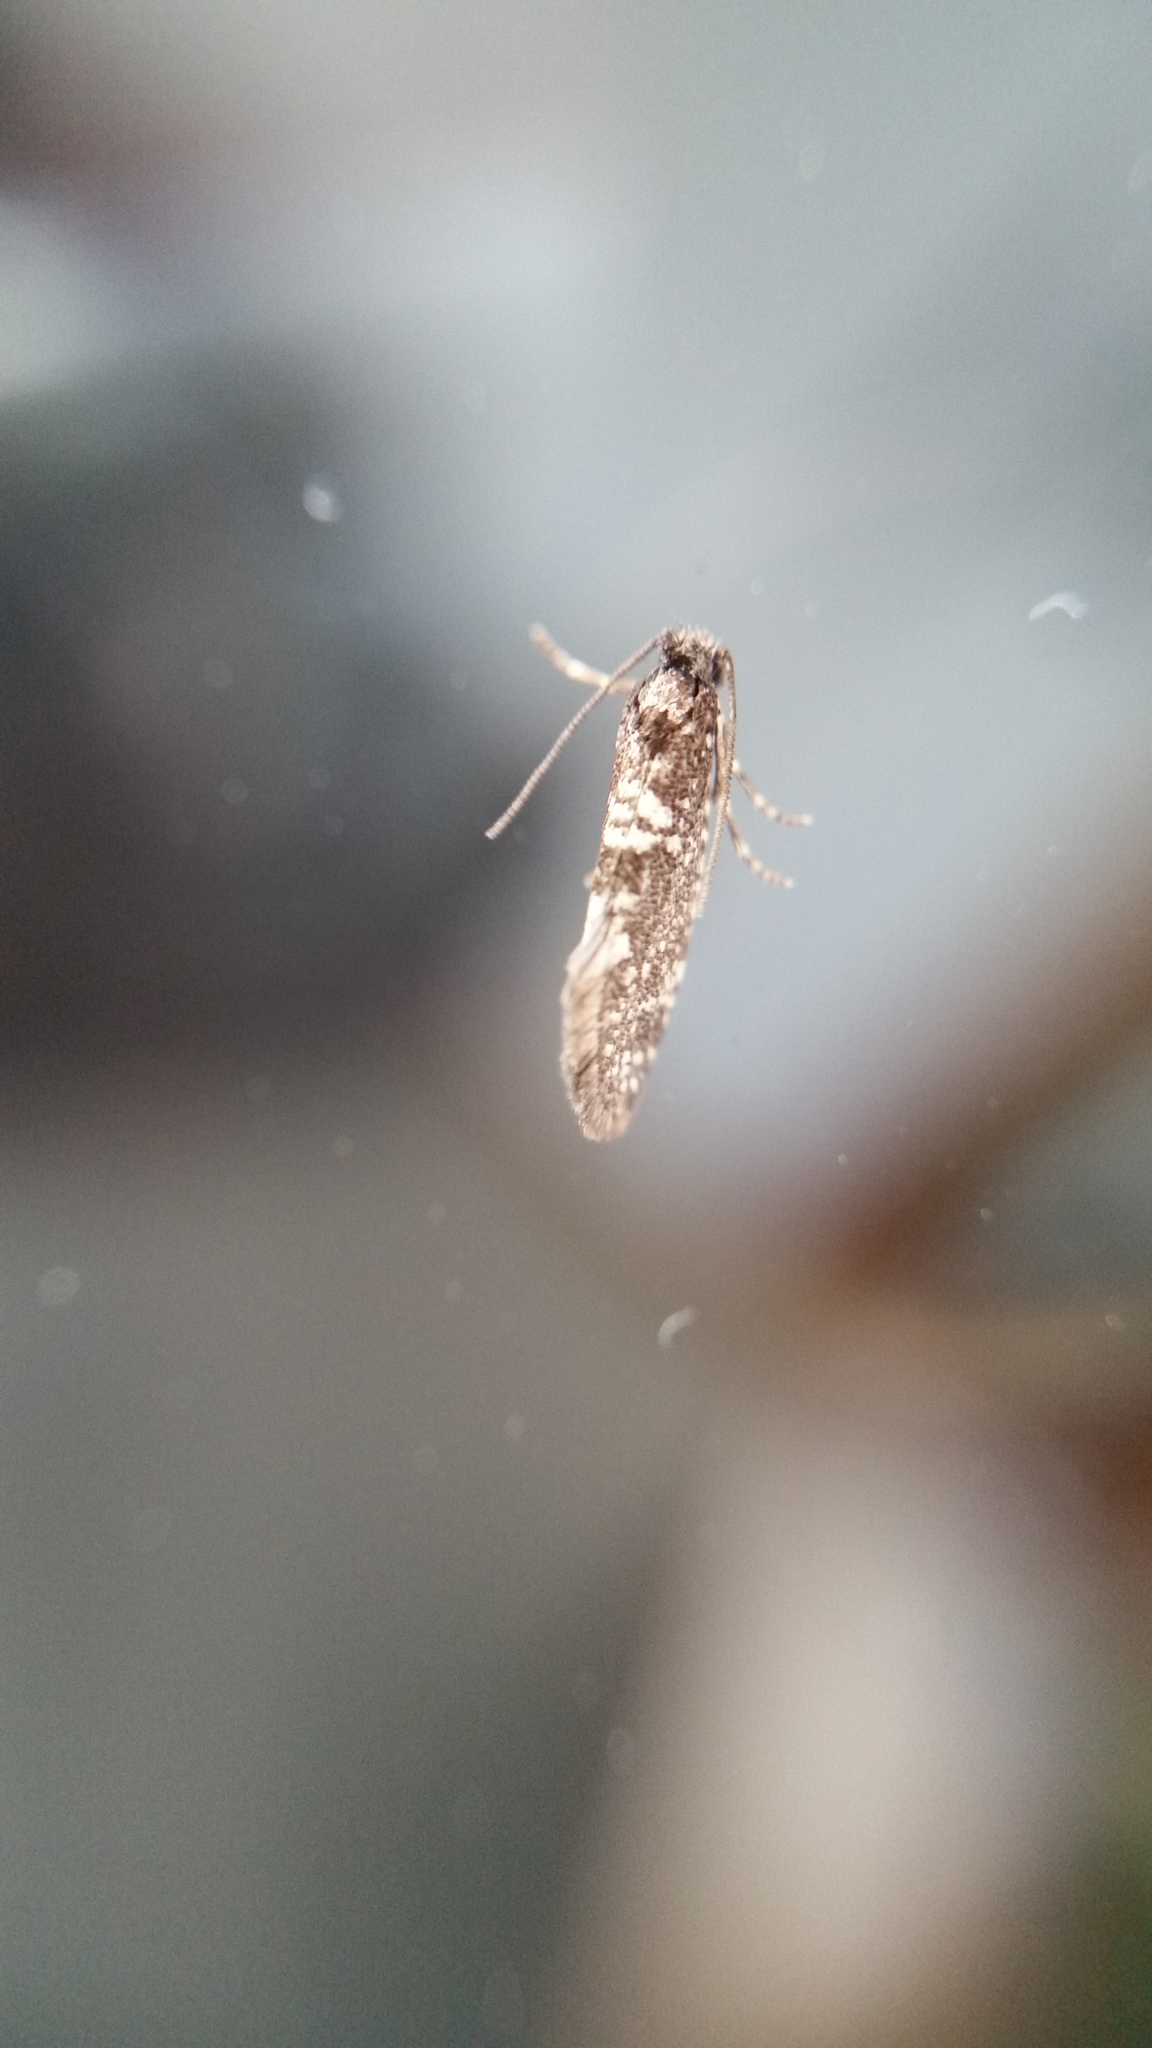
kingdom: Animalia
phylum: Arthropoda
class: Insecta
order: Lepidoptera
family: Psychidae
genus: Scoriodyta
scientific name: Scoriodyta conisalia
